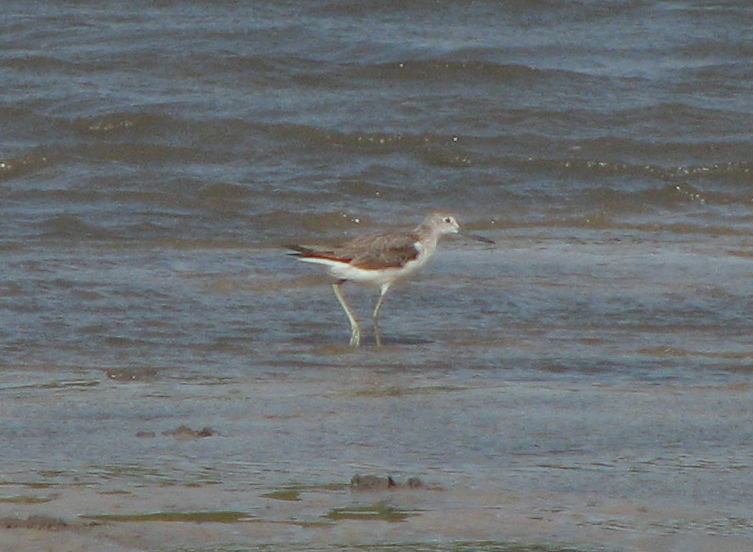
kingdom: Animalia
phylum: Chordata
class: Aves
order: Charadriiformes
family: Scolopacidae
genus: Tringa
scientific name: Tringa nebularia
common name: Common greenshank
